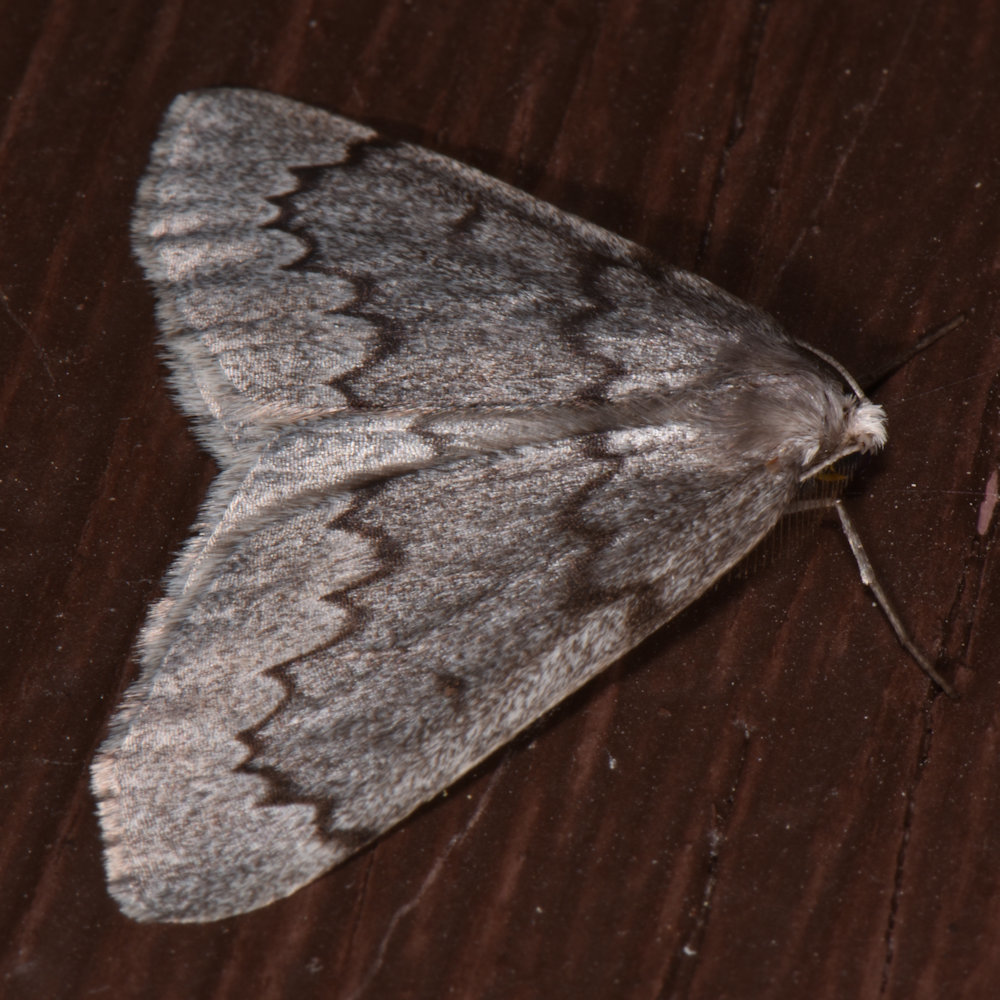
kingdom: Animalia
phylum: Arthropoda
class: Insecta
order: Lepidoptera
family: Geometridae
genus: Nepytia
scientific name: Nepytia pellucidaria
